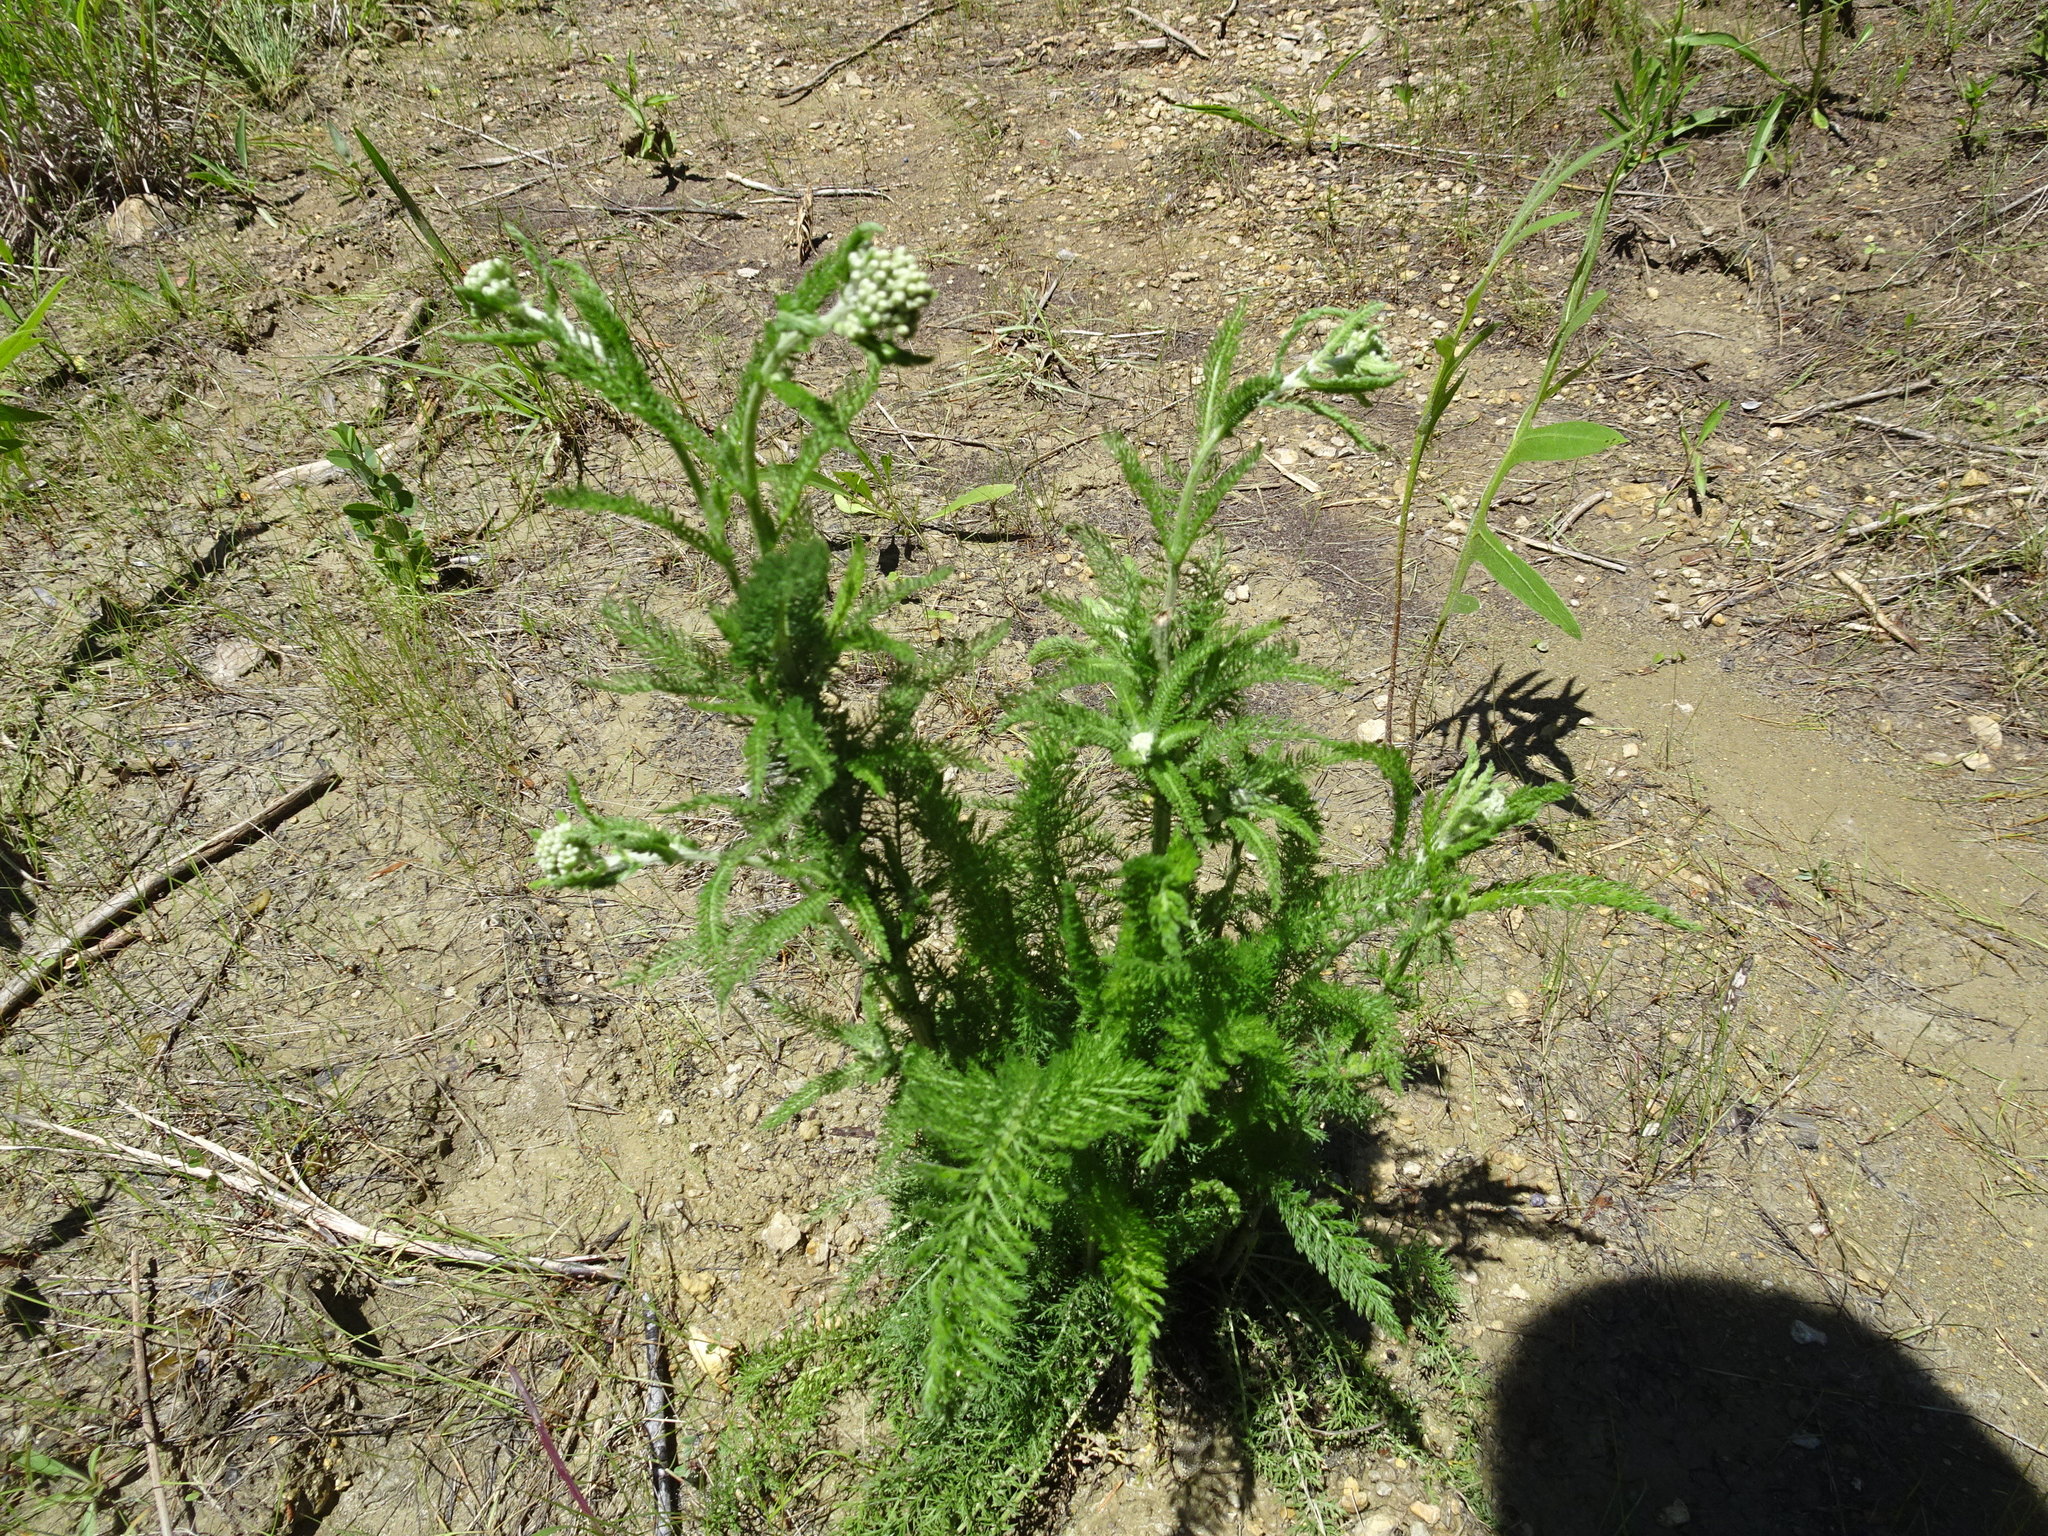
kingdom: Plantae
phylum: Tracheophyta
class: Magnoliopsida
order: Asterales
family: Asteraceae
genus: Achillea
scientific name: Achillea millefolium
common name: Yarrow
